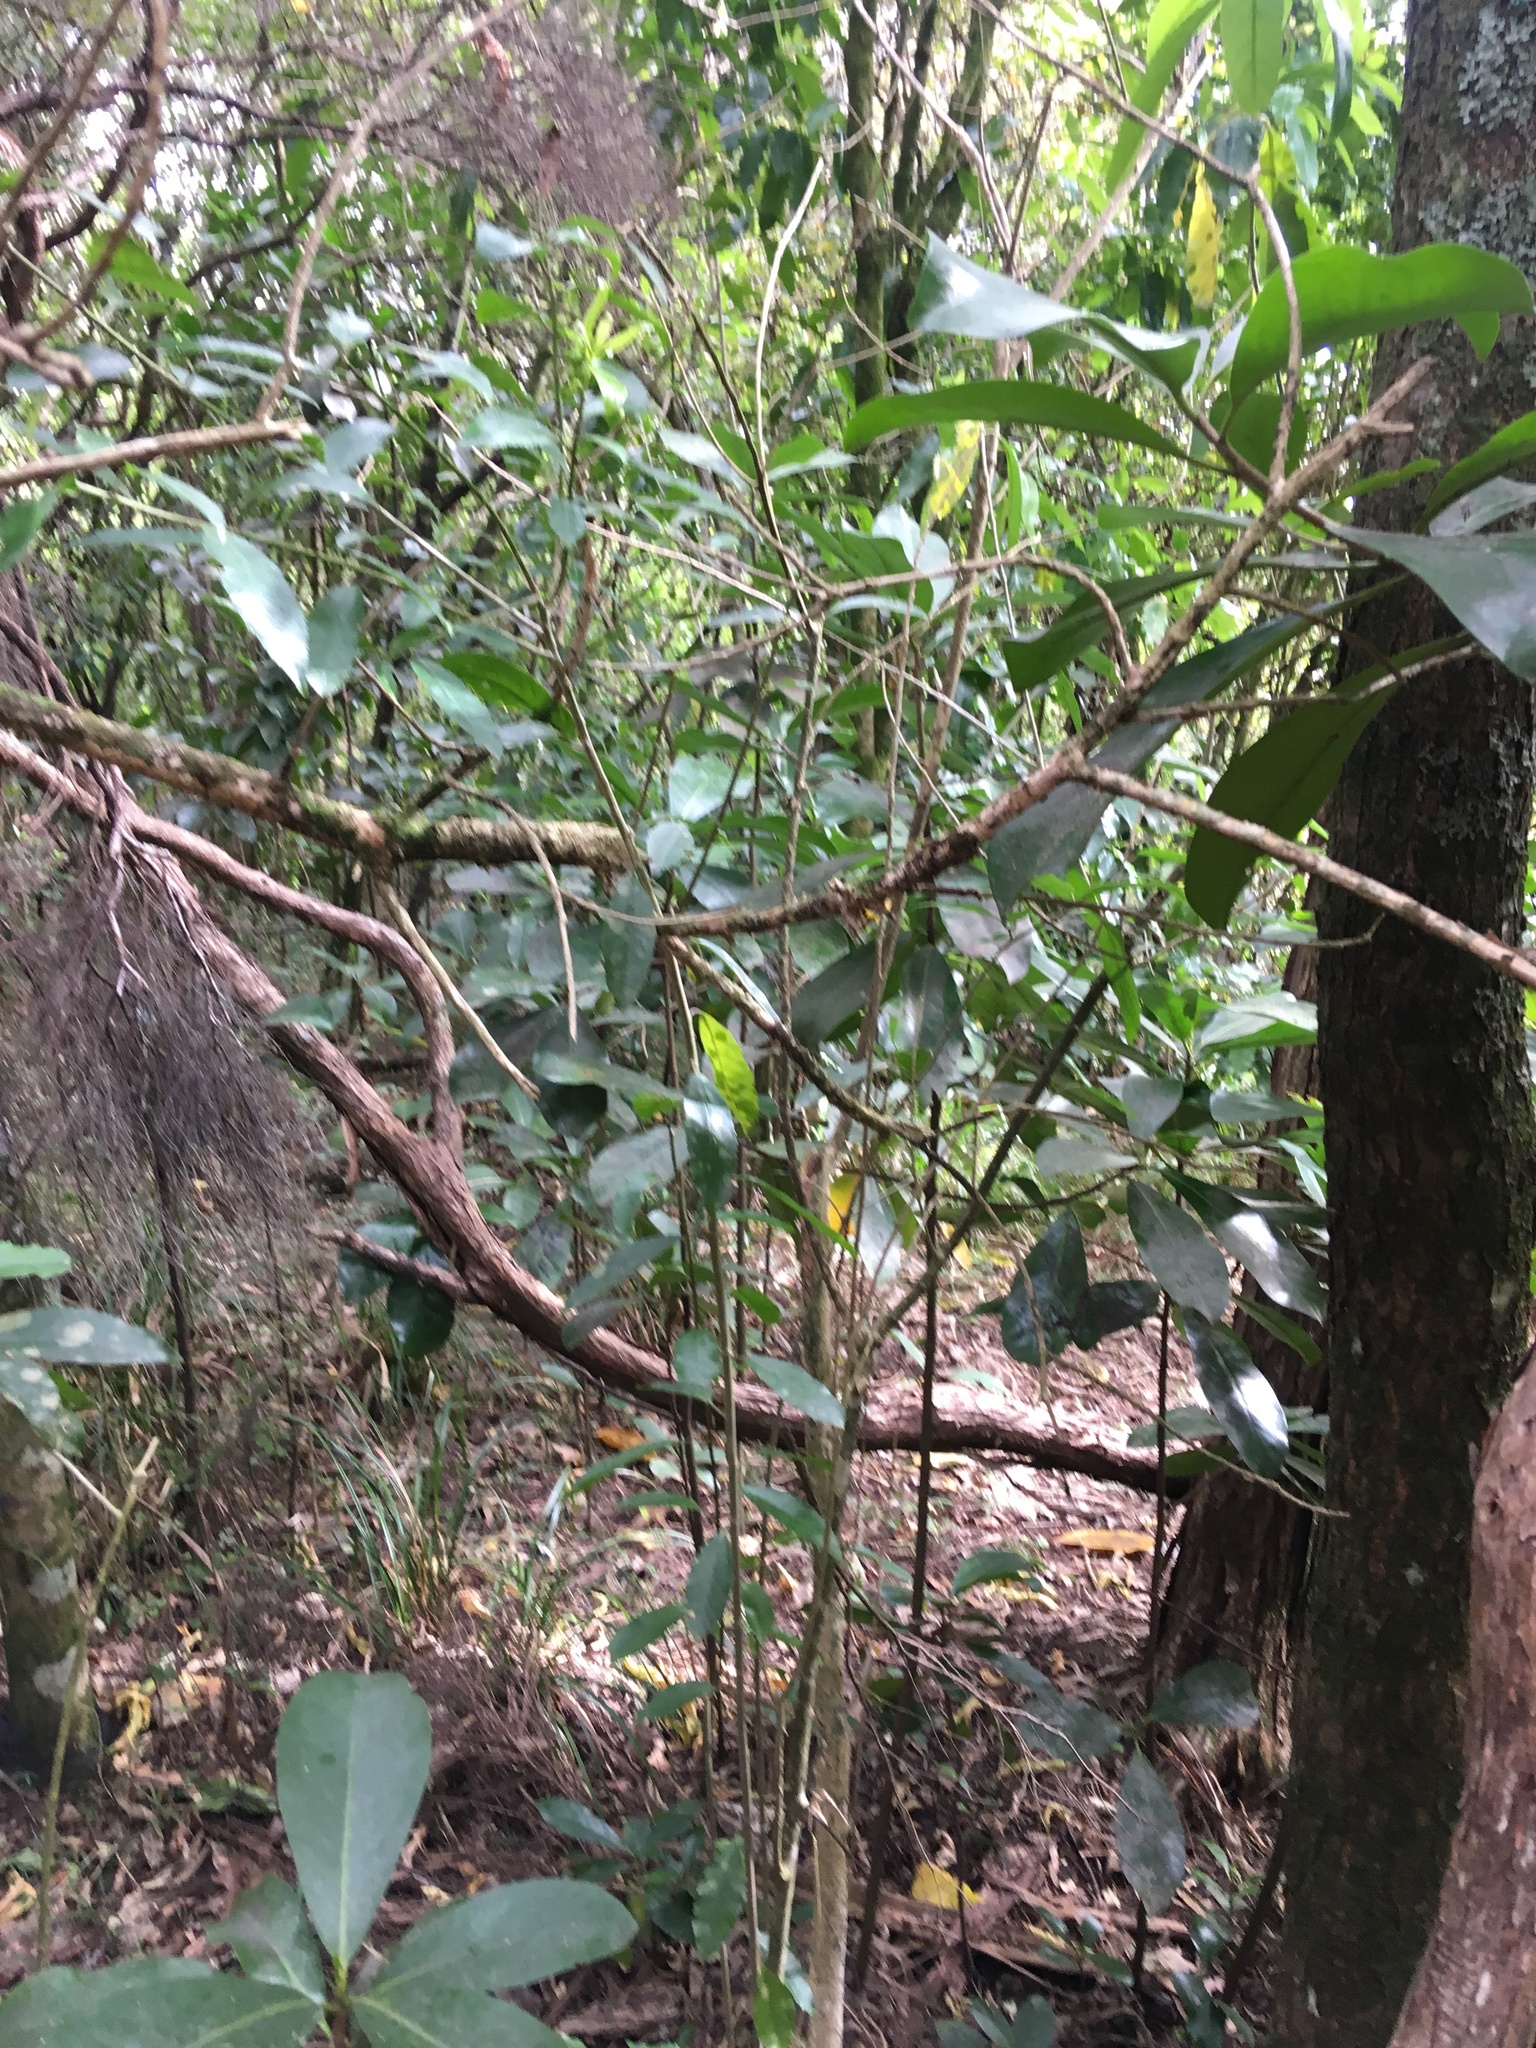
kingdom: Plantae
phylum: Tracheophyta
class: Magnoliopsida
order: Cucurbitales
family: Corynocarpaceae
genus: Corynocarpus
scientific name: Corynocarpus laevigatus
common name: New zealand laurel
